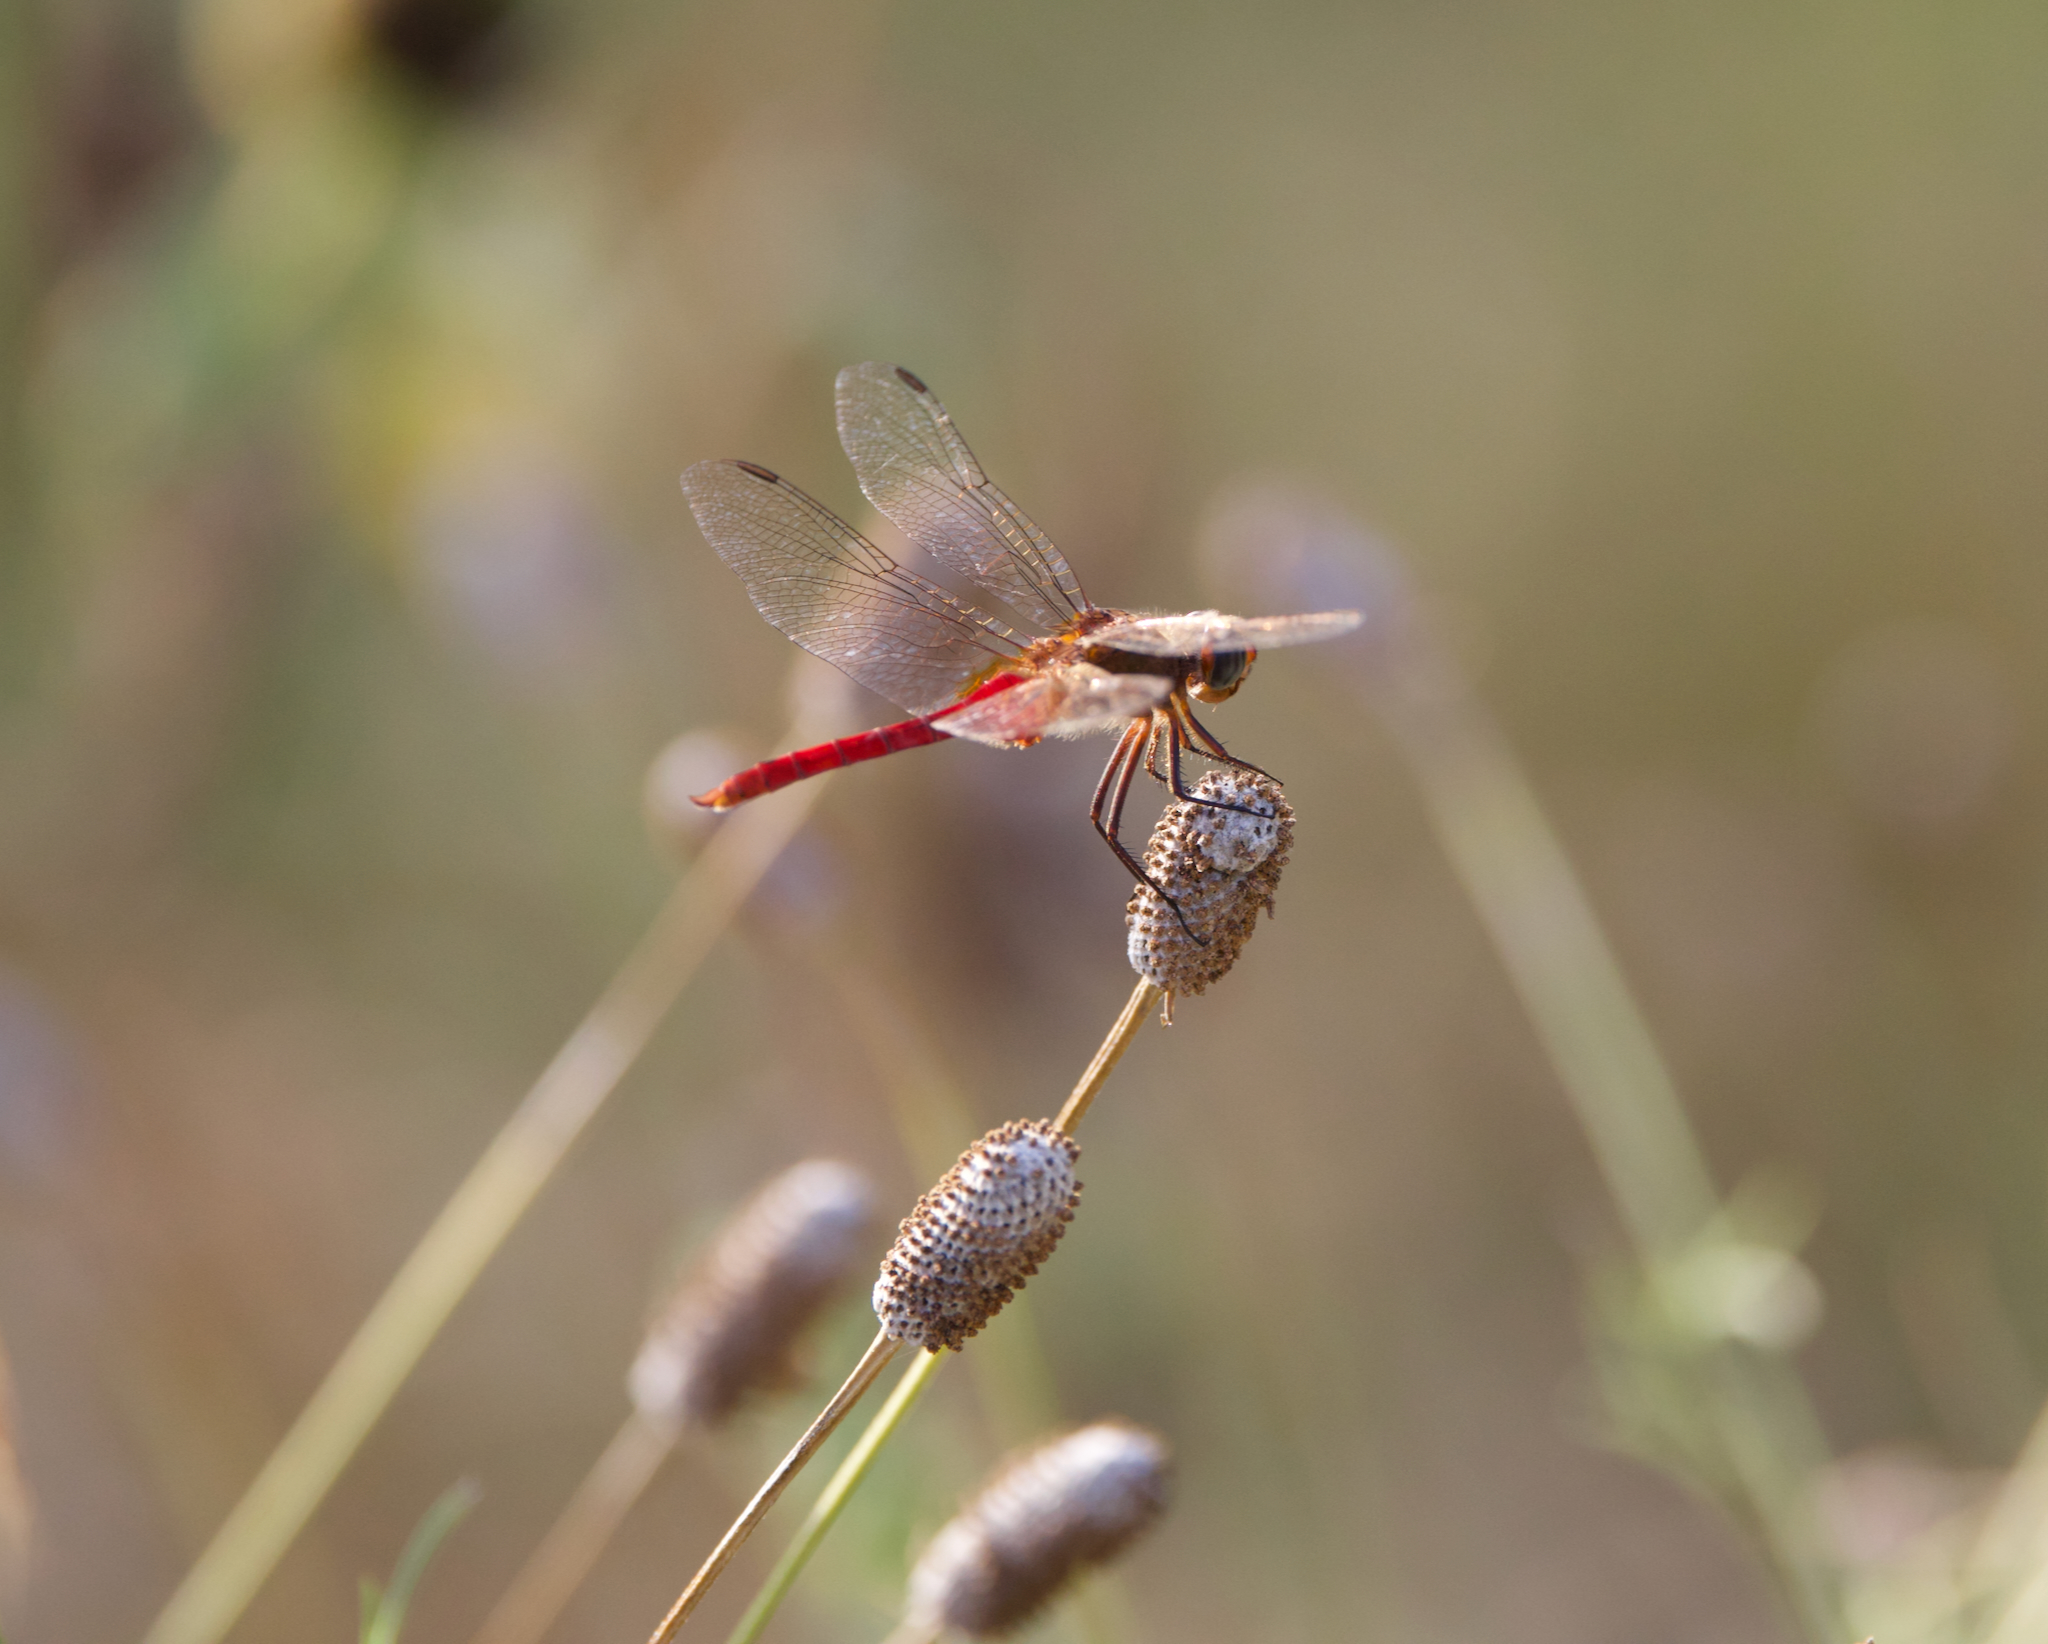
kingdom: Animalia
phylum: Arthropoda
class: Insecta
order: Odonata
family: Libellulidae
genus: Brachymesia
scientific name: Brachymesia furcata
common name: Red-taled pennant
